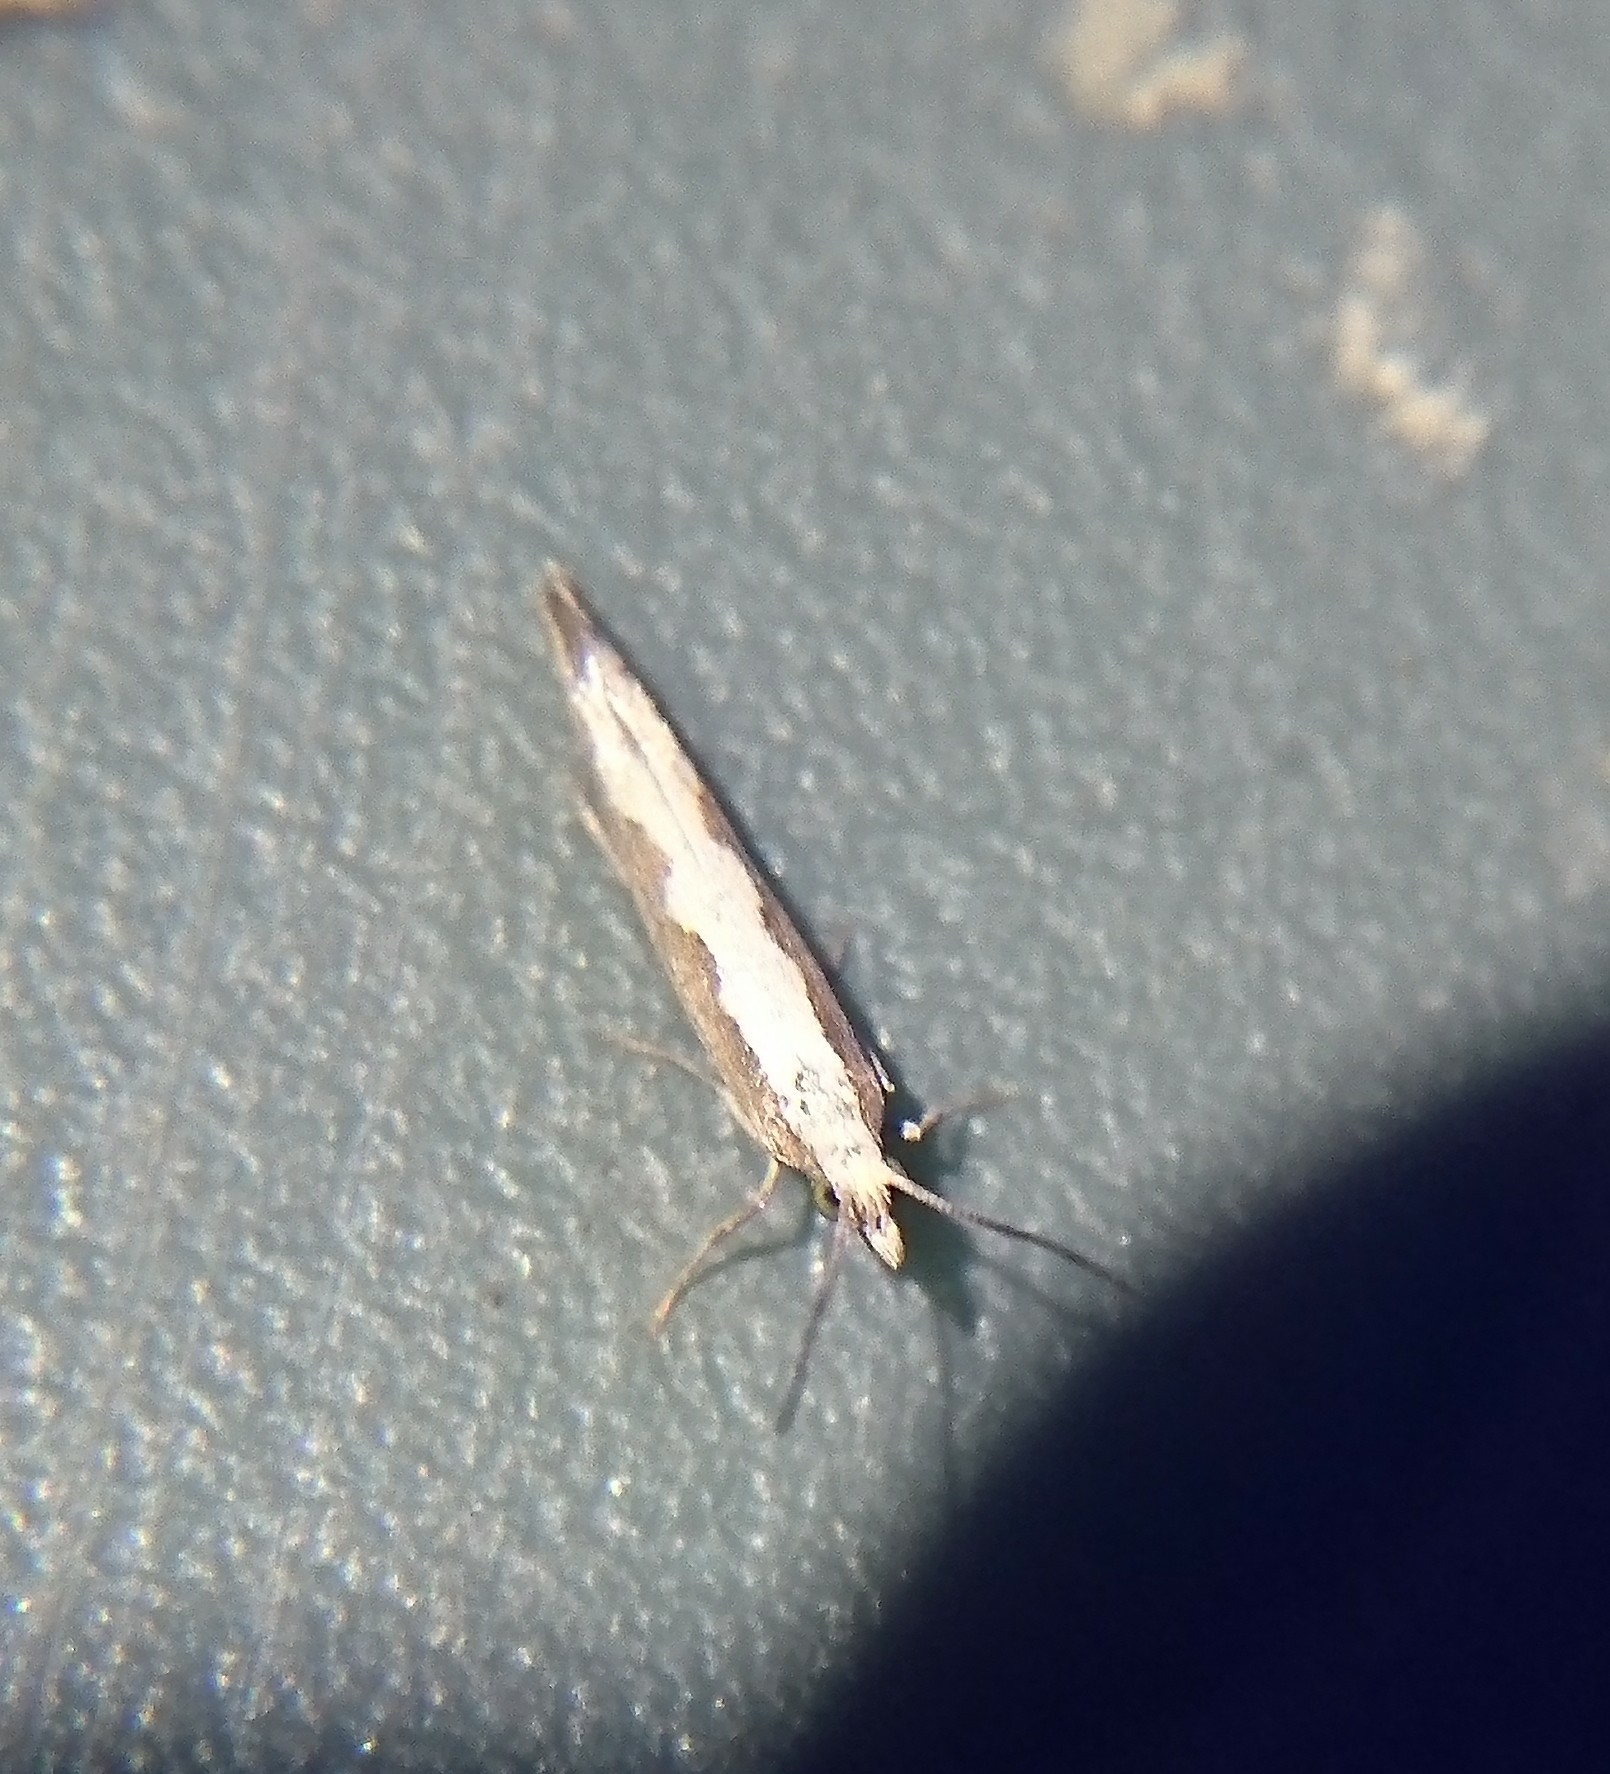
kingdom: Animalia
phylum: Arthropoda
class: Insecta
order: Lepidoptera
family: Plutellidae
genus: Plutella
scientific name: Plutella xylostella
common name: Diamond-back moth
